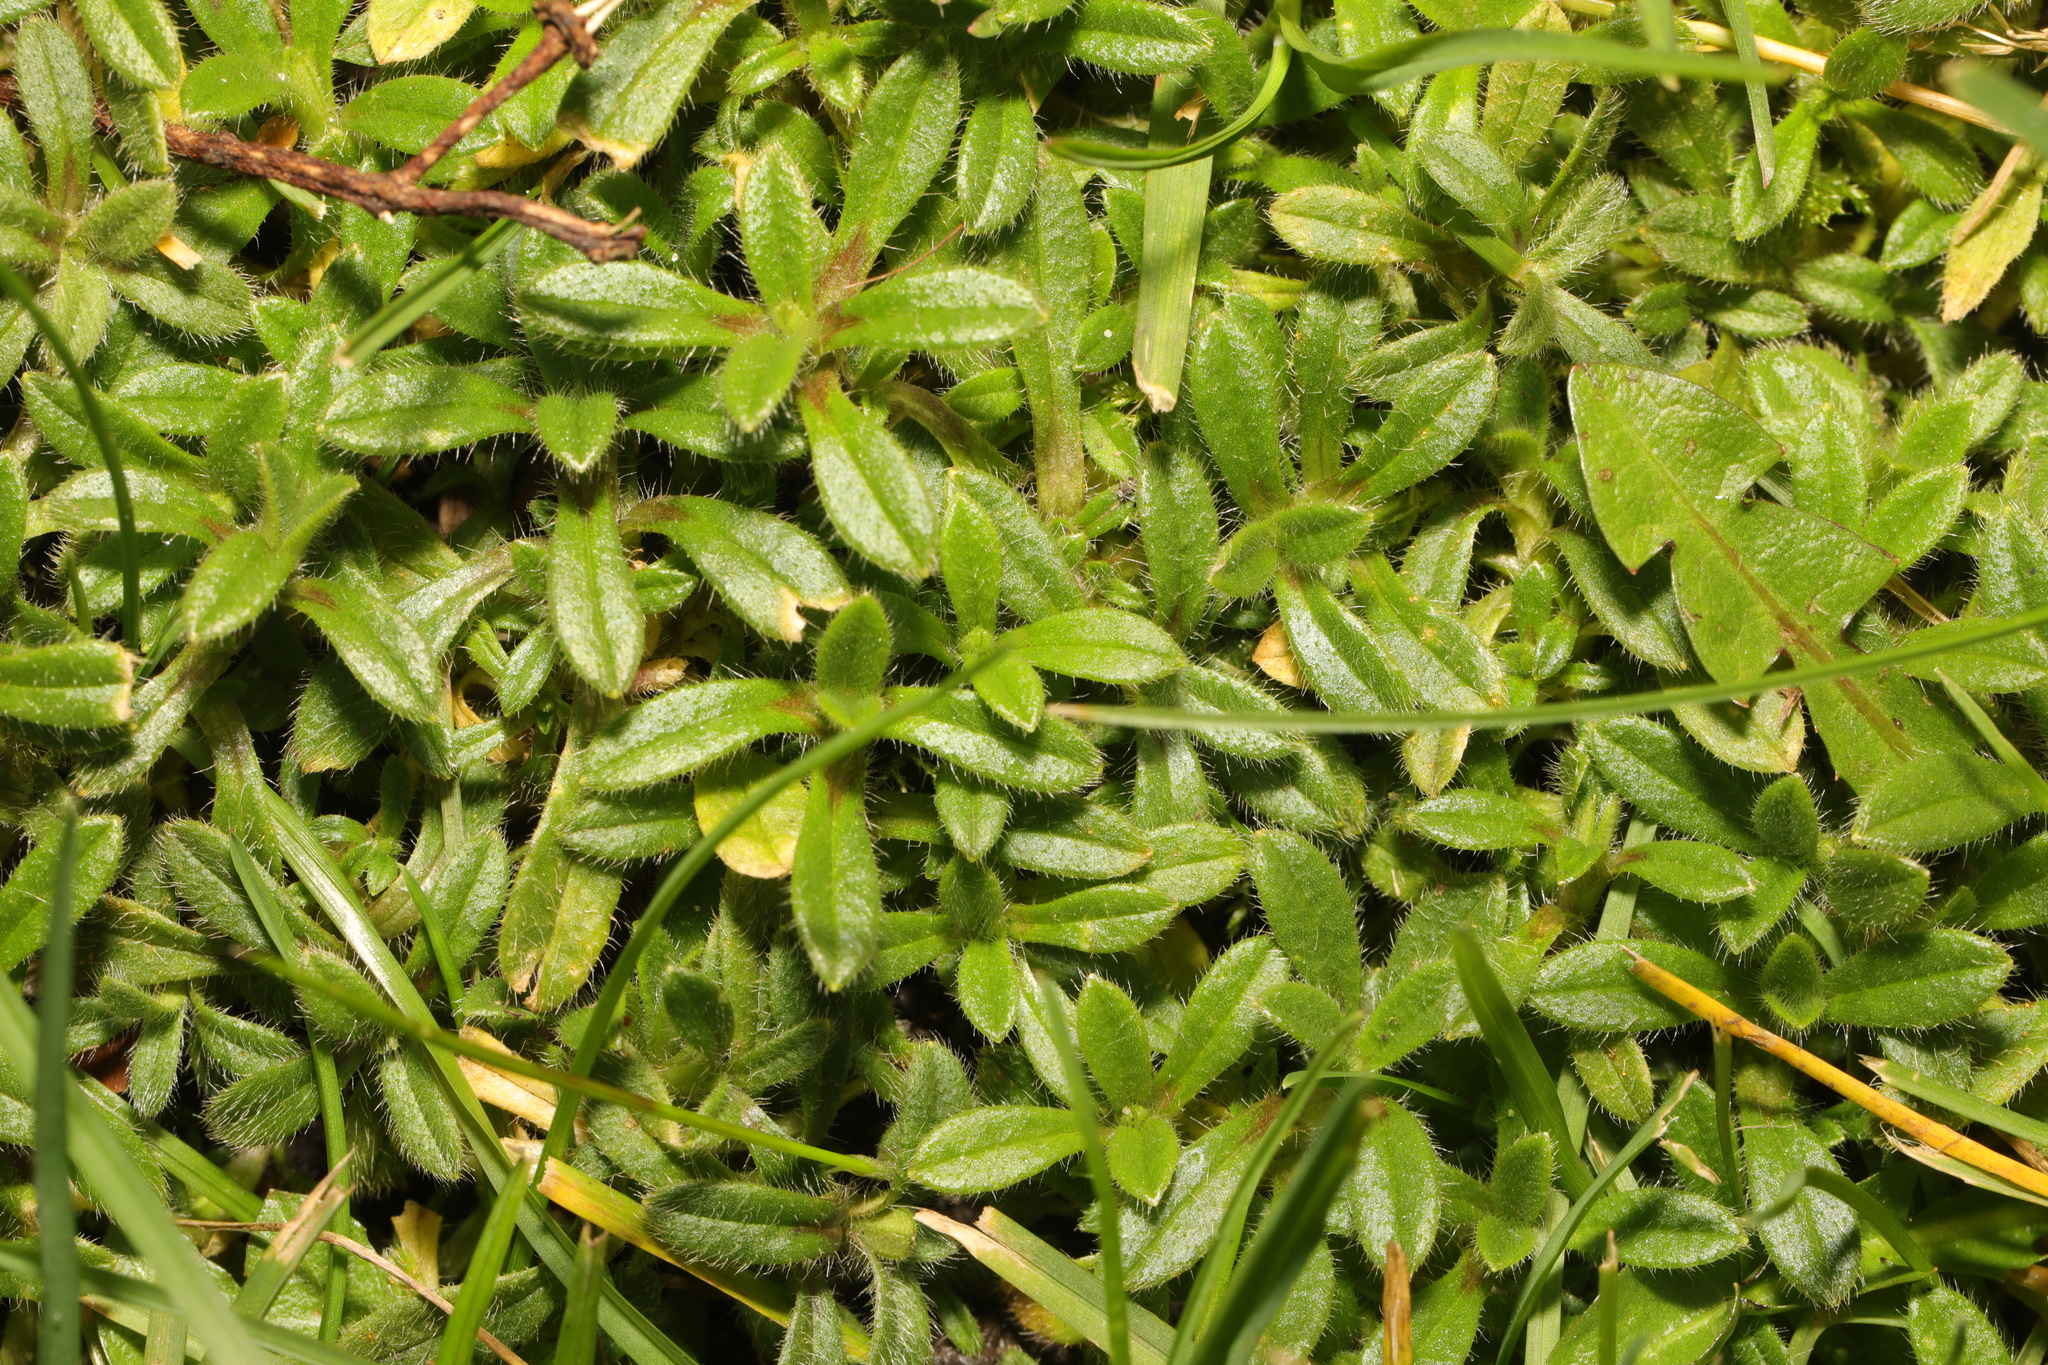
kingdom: Plantae
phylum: Tracheophyta
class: Magnoliopsida
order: Caryophyllales
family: Caryophyllaceae
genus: Cerastium
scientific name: Cerastium fontanum
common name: Common mouse-ear
